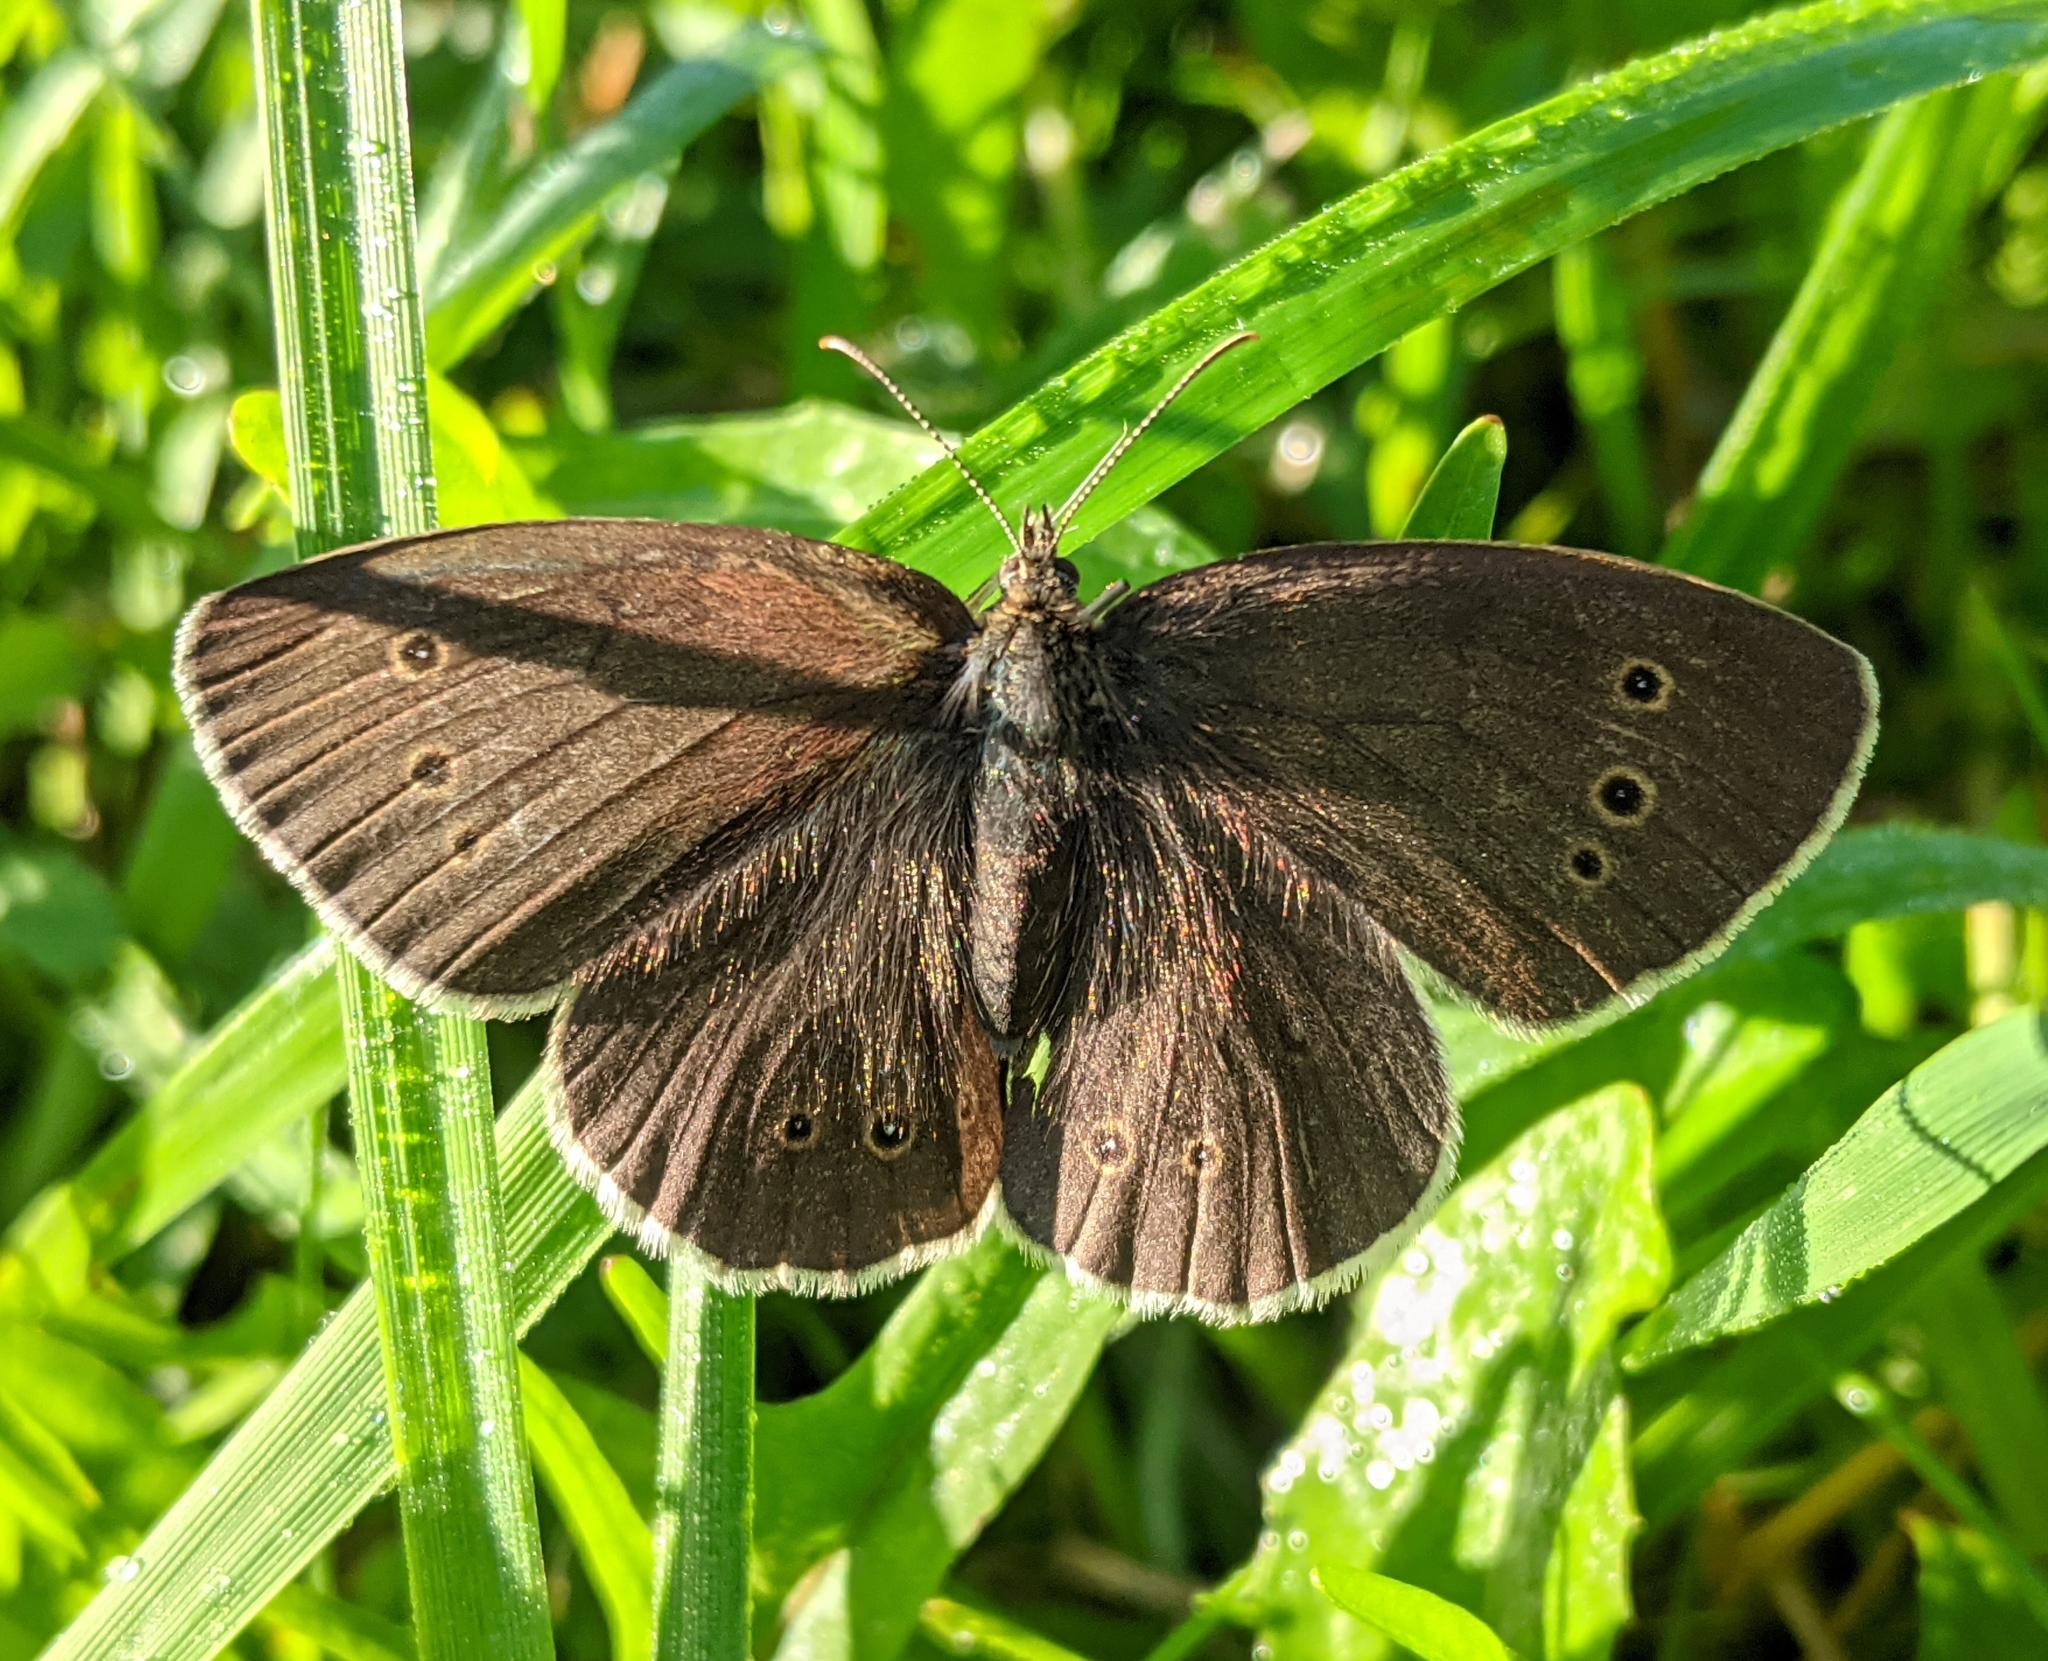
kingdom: Animalia
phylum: Arthropoda
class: Insecta
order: Lepidoptera
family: Nymphalidae
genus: Aphantopus
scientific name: Aphantopus hyperantus
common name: Ringlet
